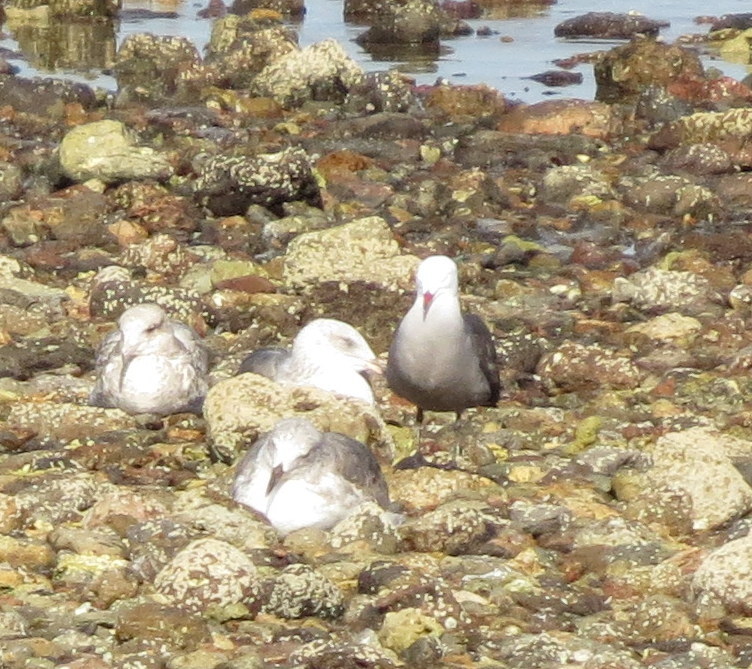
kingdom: Animalia
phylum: Chordata
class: Aves
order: Charadriiformes
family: Laridae
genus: Larus
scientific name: Larus heermanni
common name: Heermann's gull
